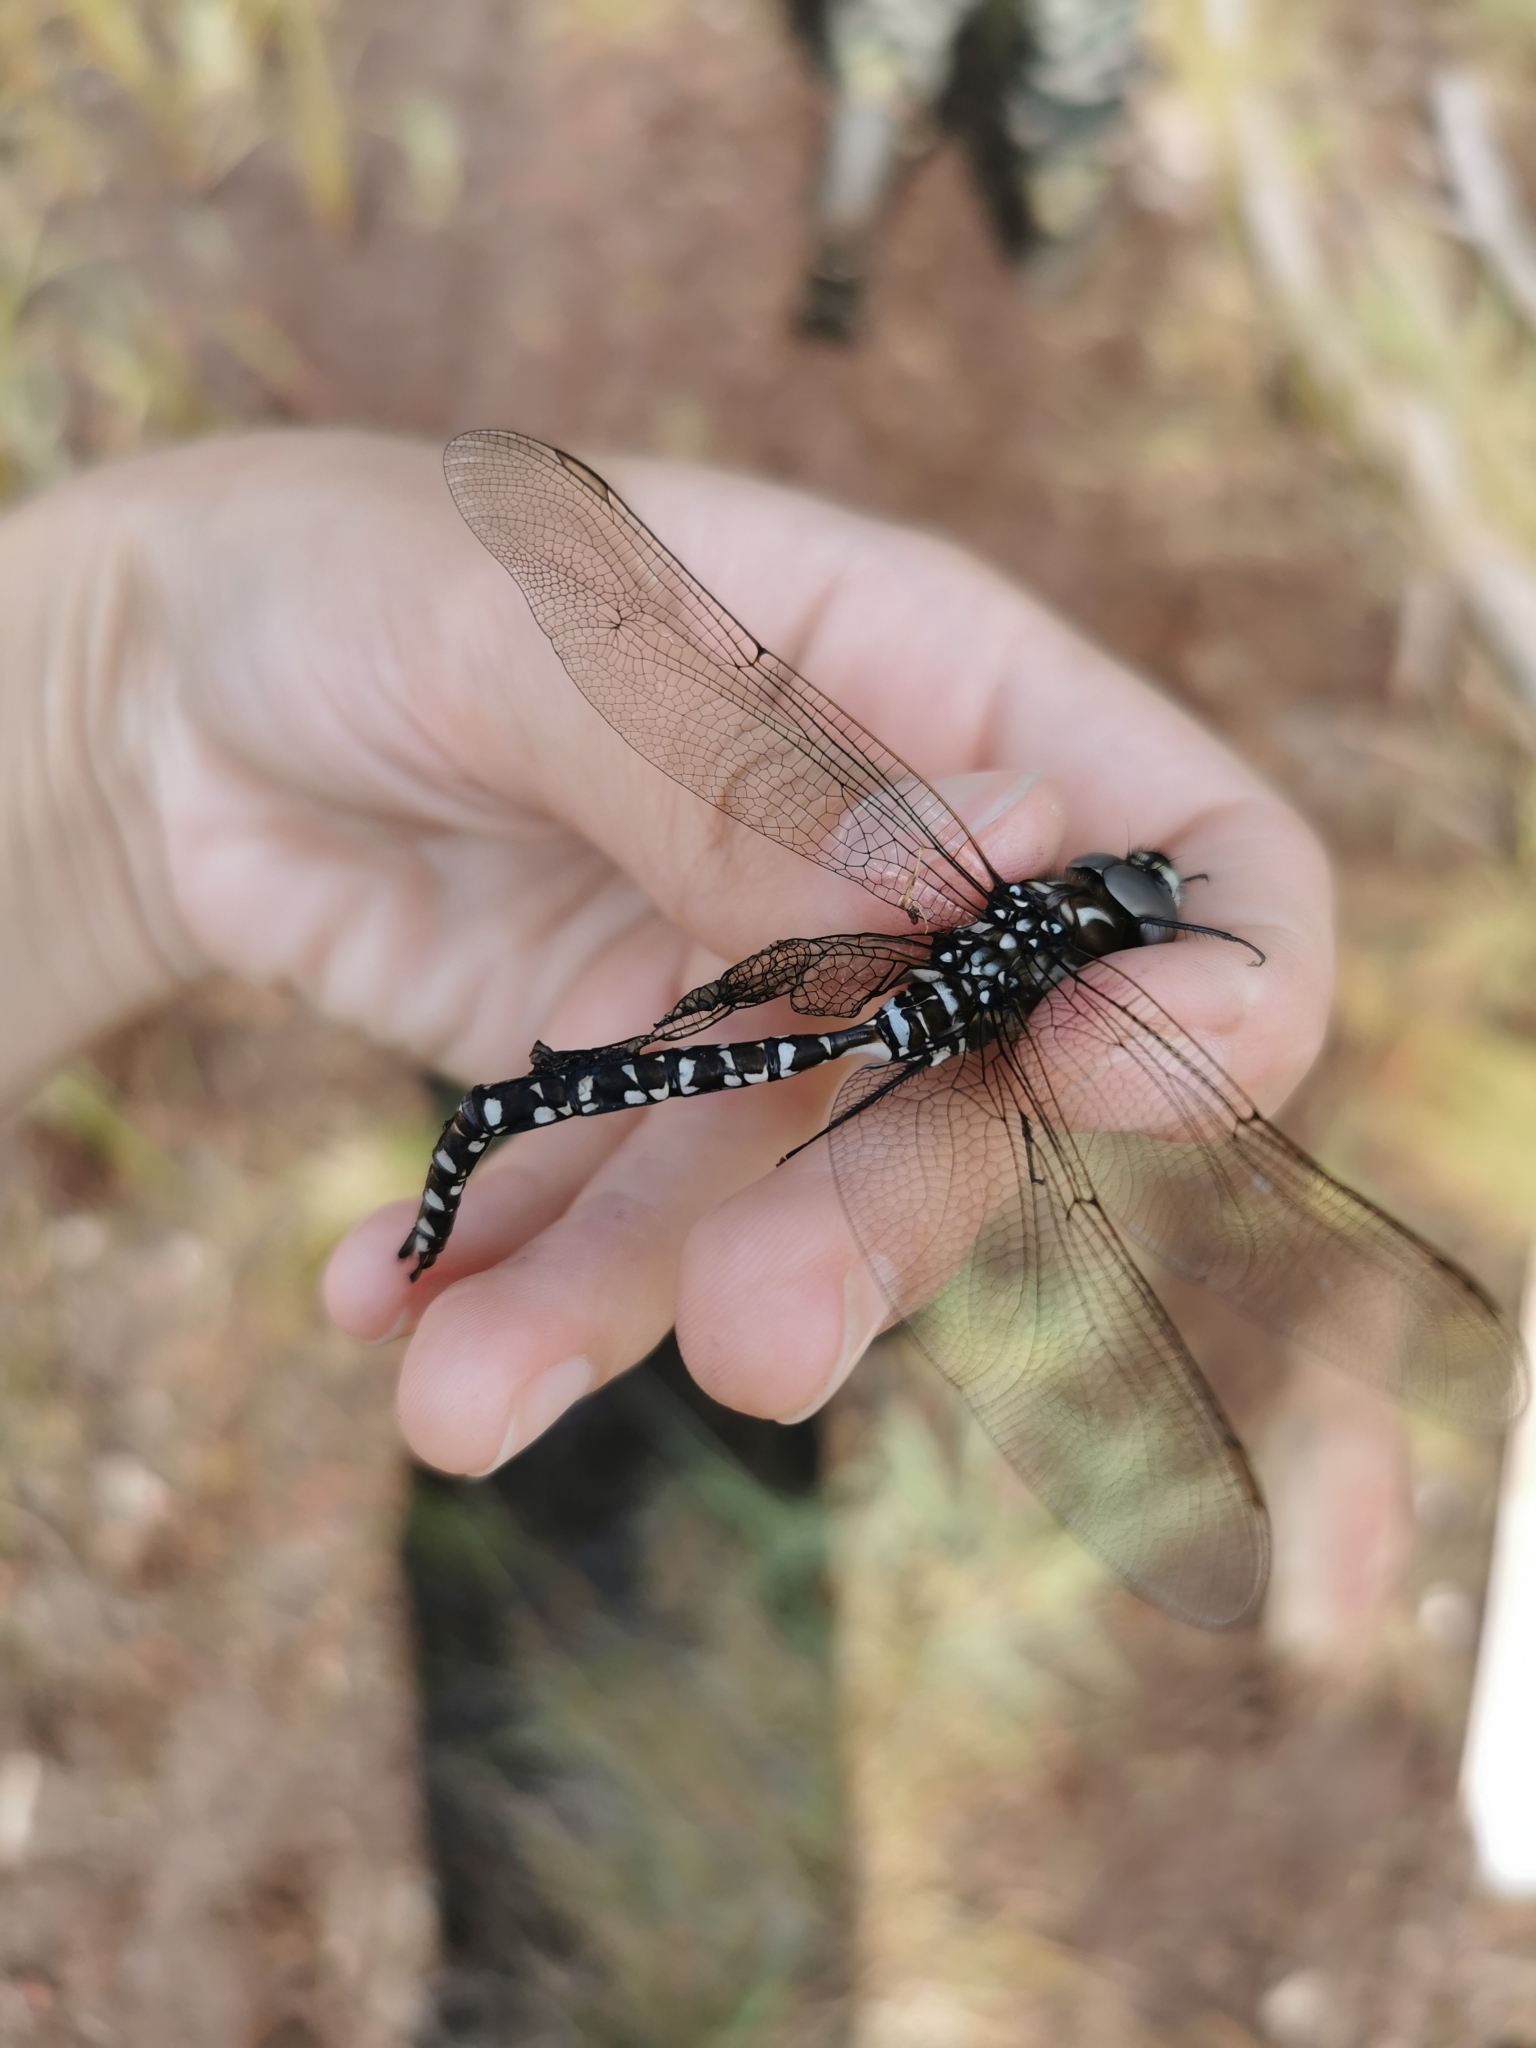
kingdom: Animalia
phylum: Arthropoda
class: Insecta
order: Odonata
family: Aeshnidae
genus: Aeshna
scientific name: Aeshna juncea
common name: Moorland hawker
